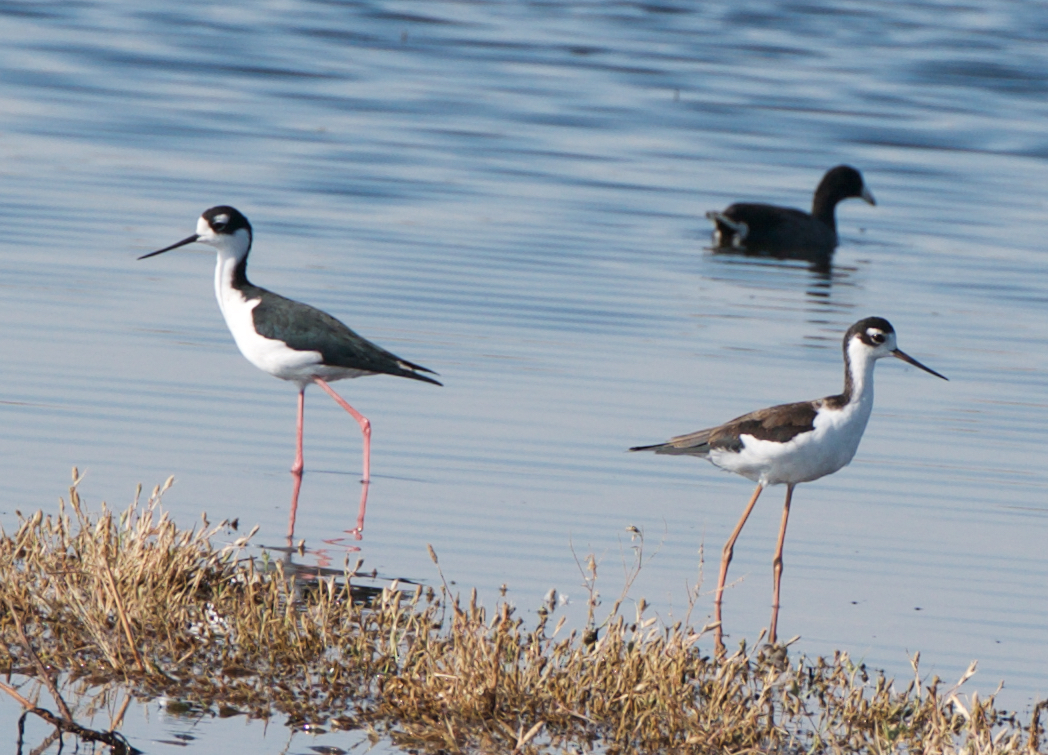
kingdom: Animalia
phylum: Chordata
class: Aves
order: Charadriiformes
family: Recurvirostridae
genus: Himantopus
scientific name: Himantopus mexicanus
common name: Black-necked stilt
